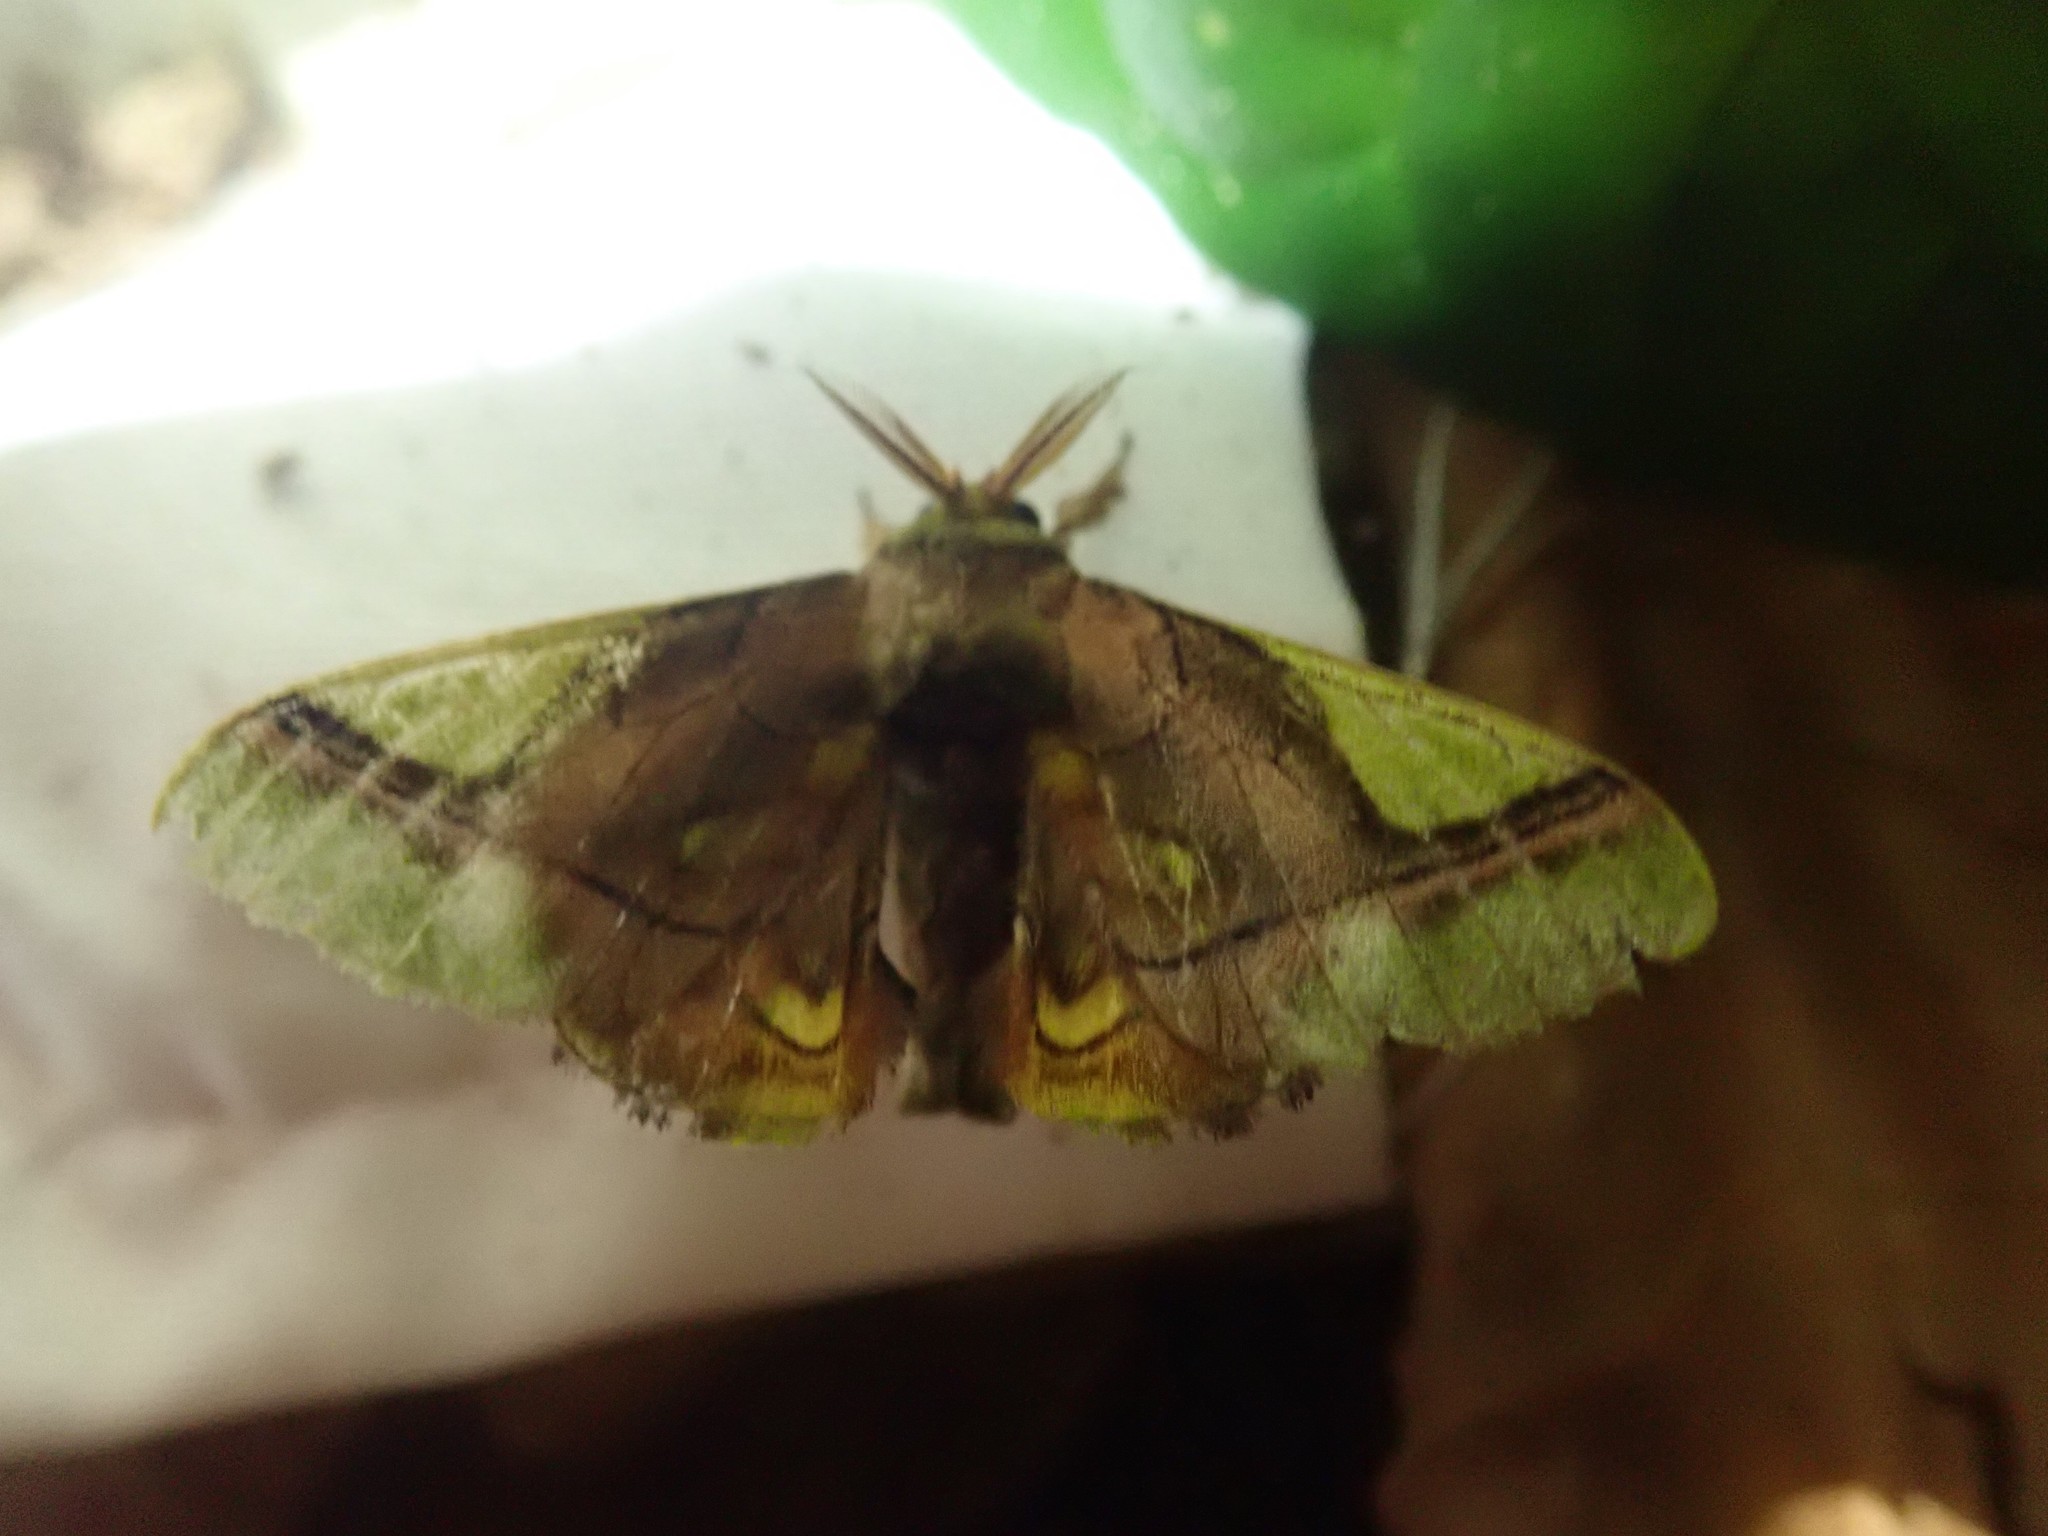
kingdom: Animalia
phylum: Arthropoda
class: Insecta
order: Lepidoptera
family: Bombycidae
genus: Epia
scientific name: Epia muscosa
